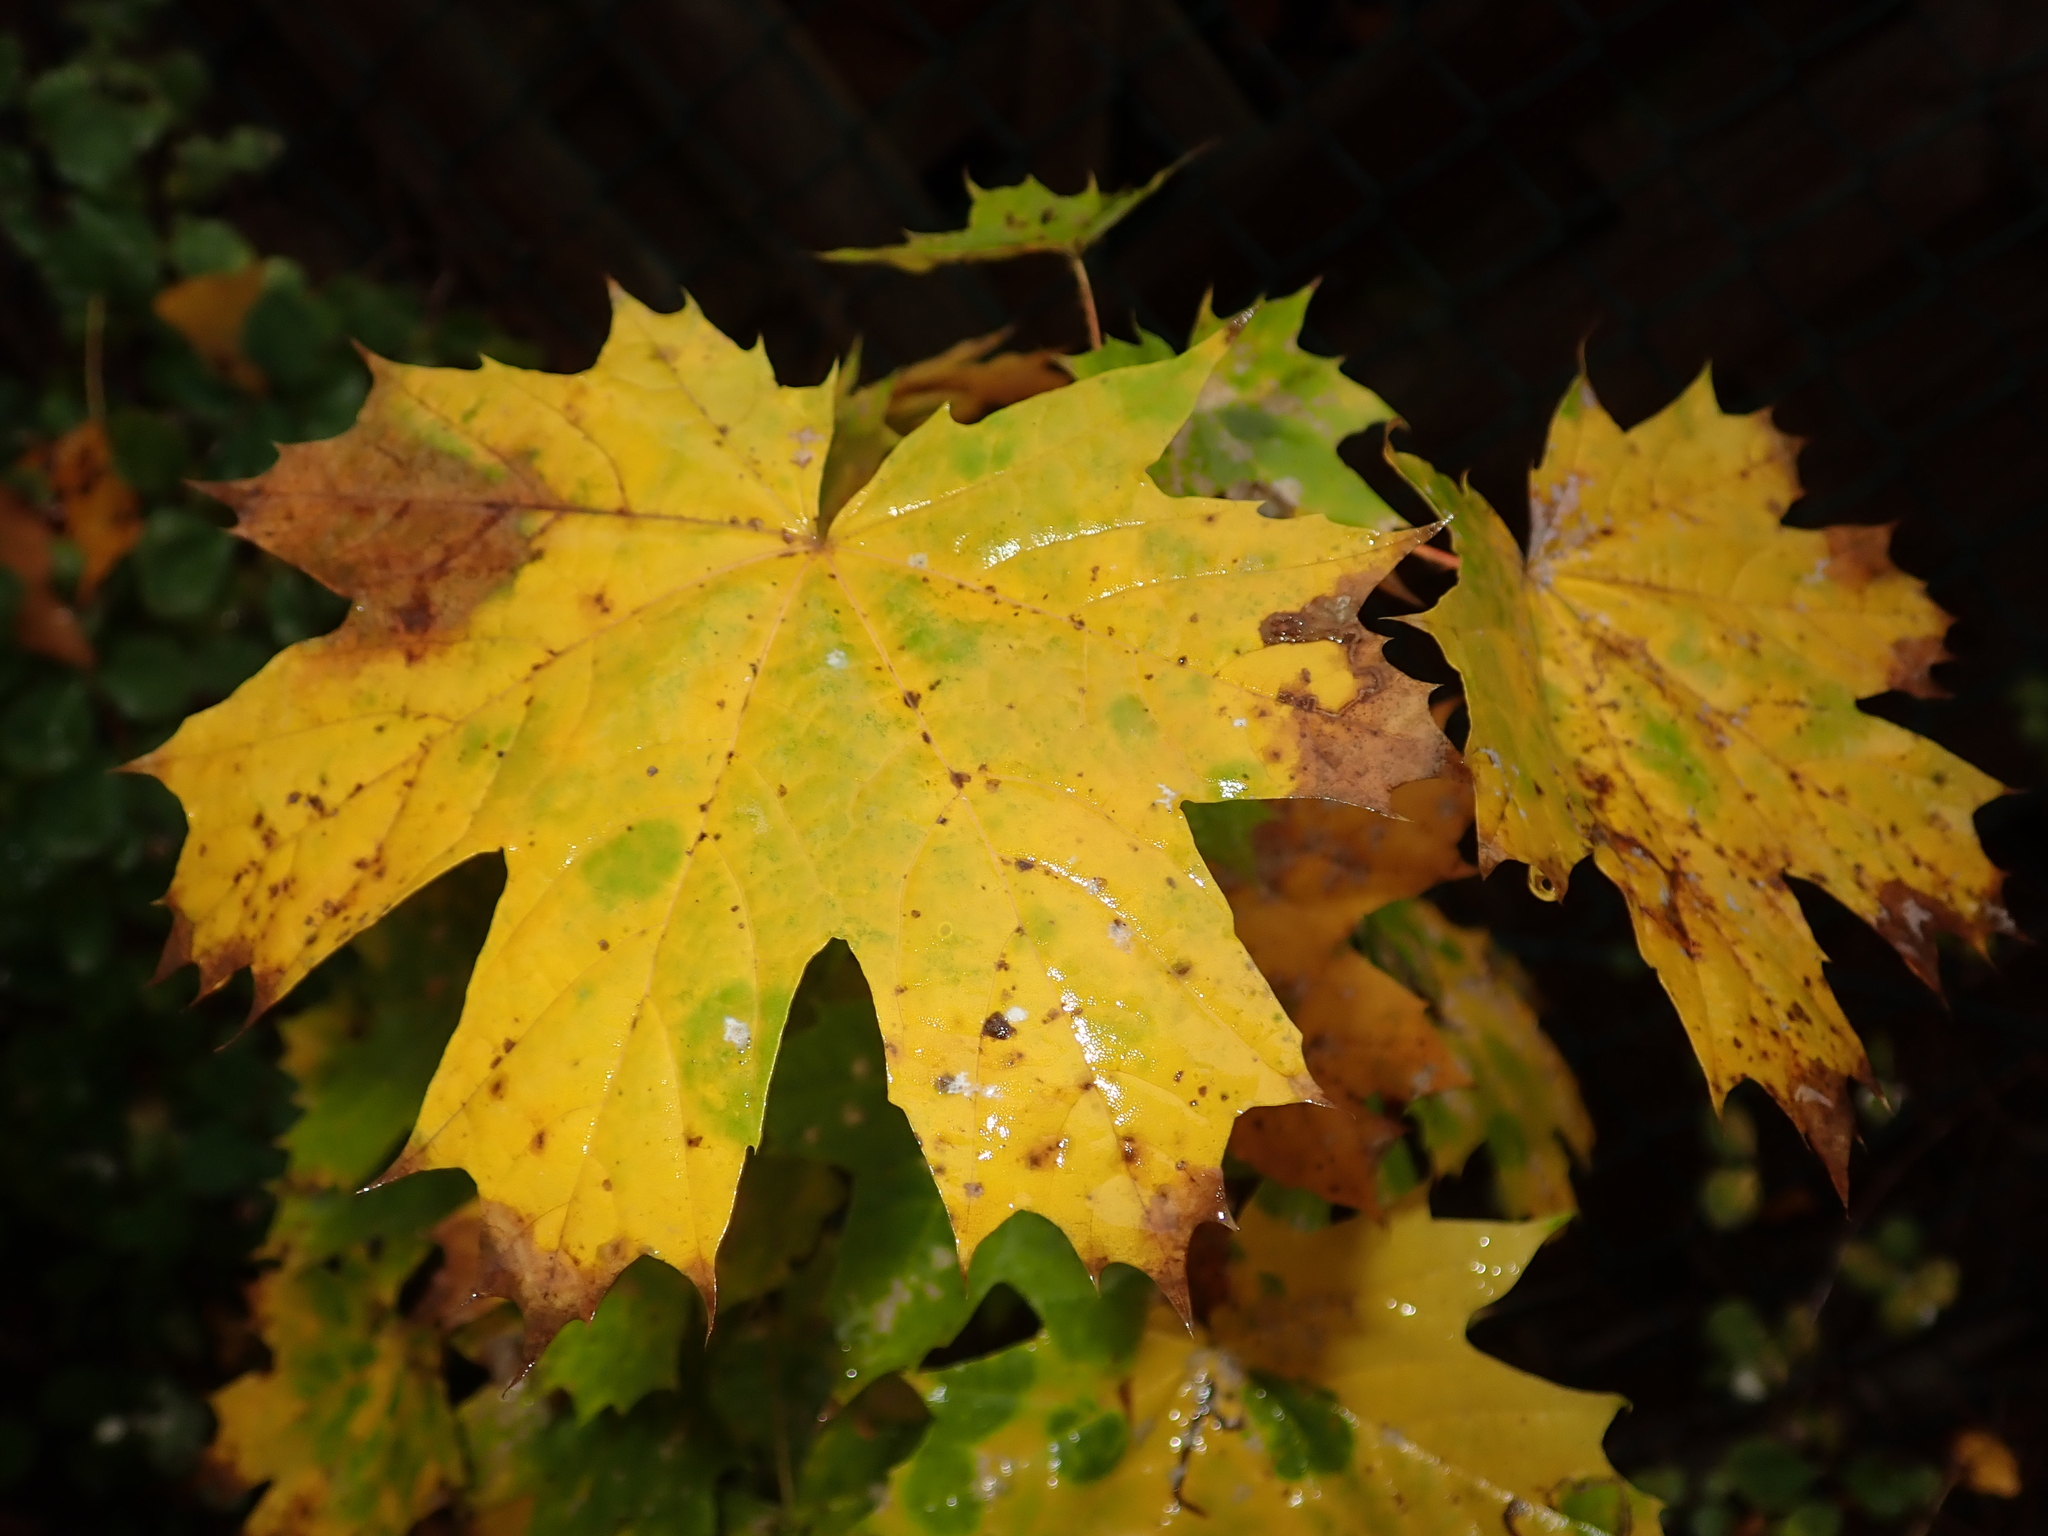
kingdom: Plantae
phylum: Tracheophyta
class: Magnoliopsida
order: Sapindales
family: Sapindaceae
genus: Acer
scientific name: Acer platanoides
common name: Norway maple
